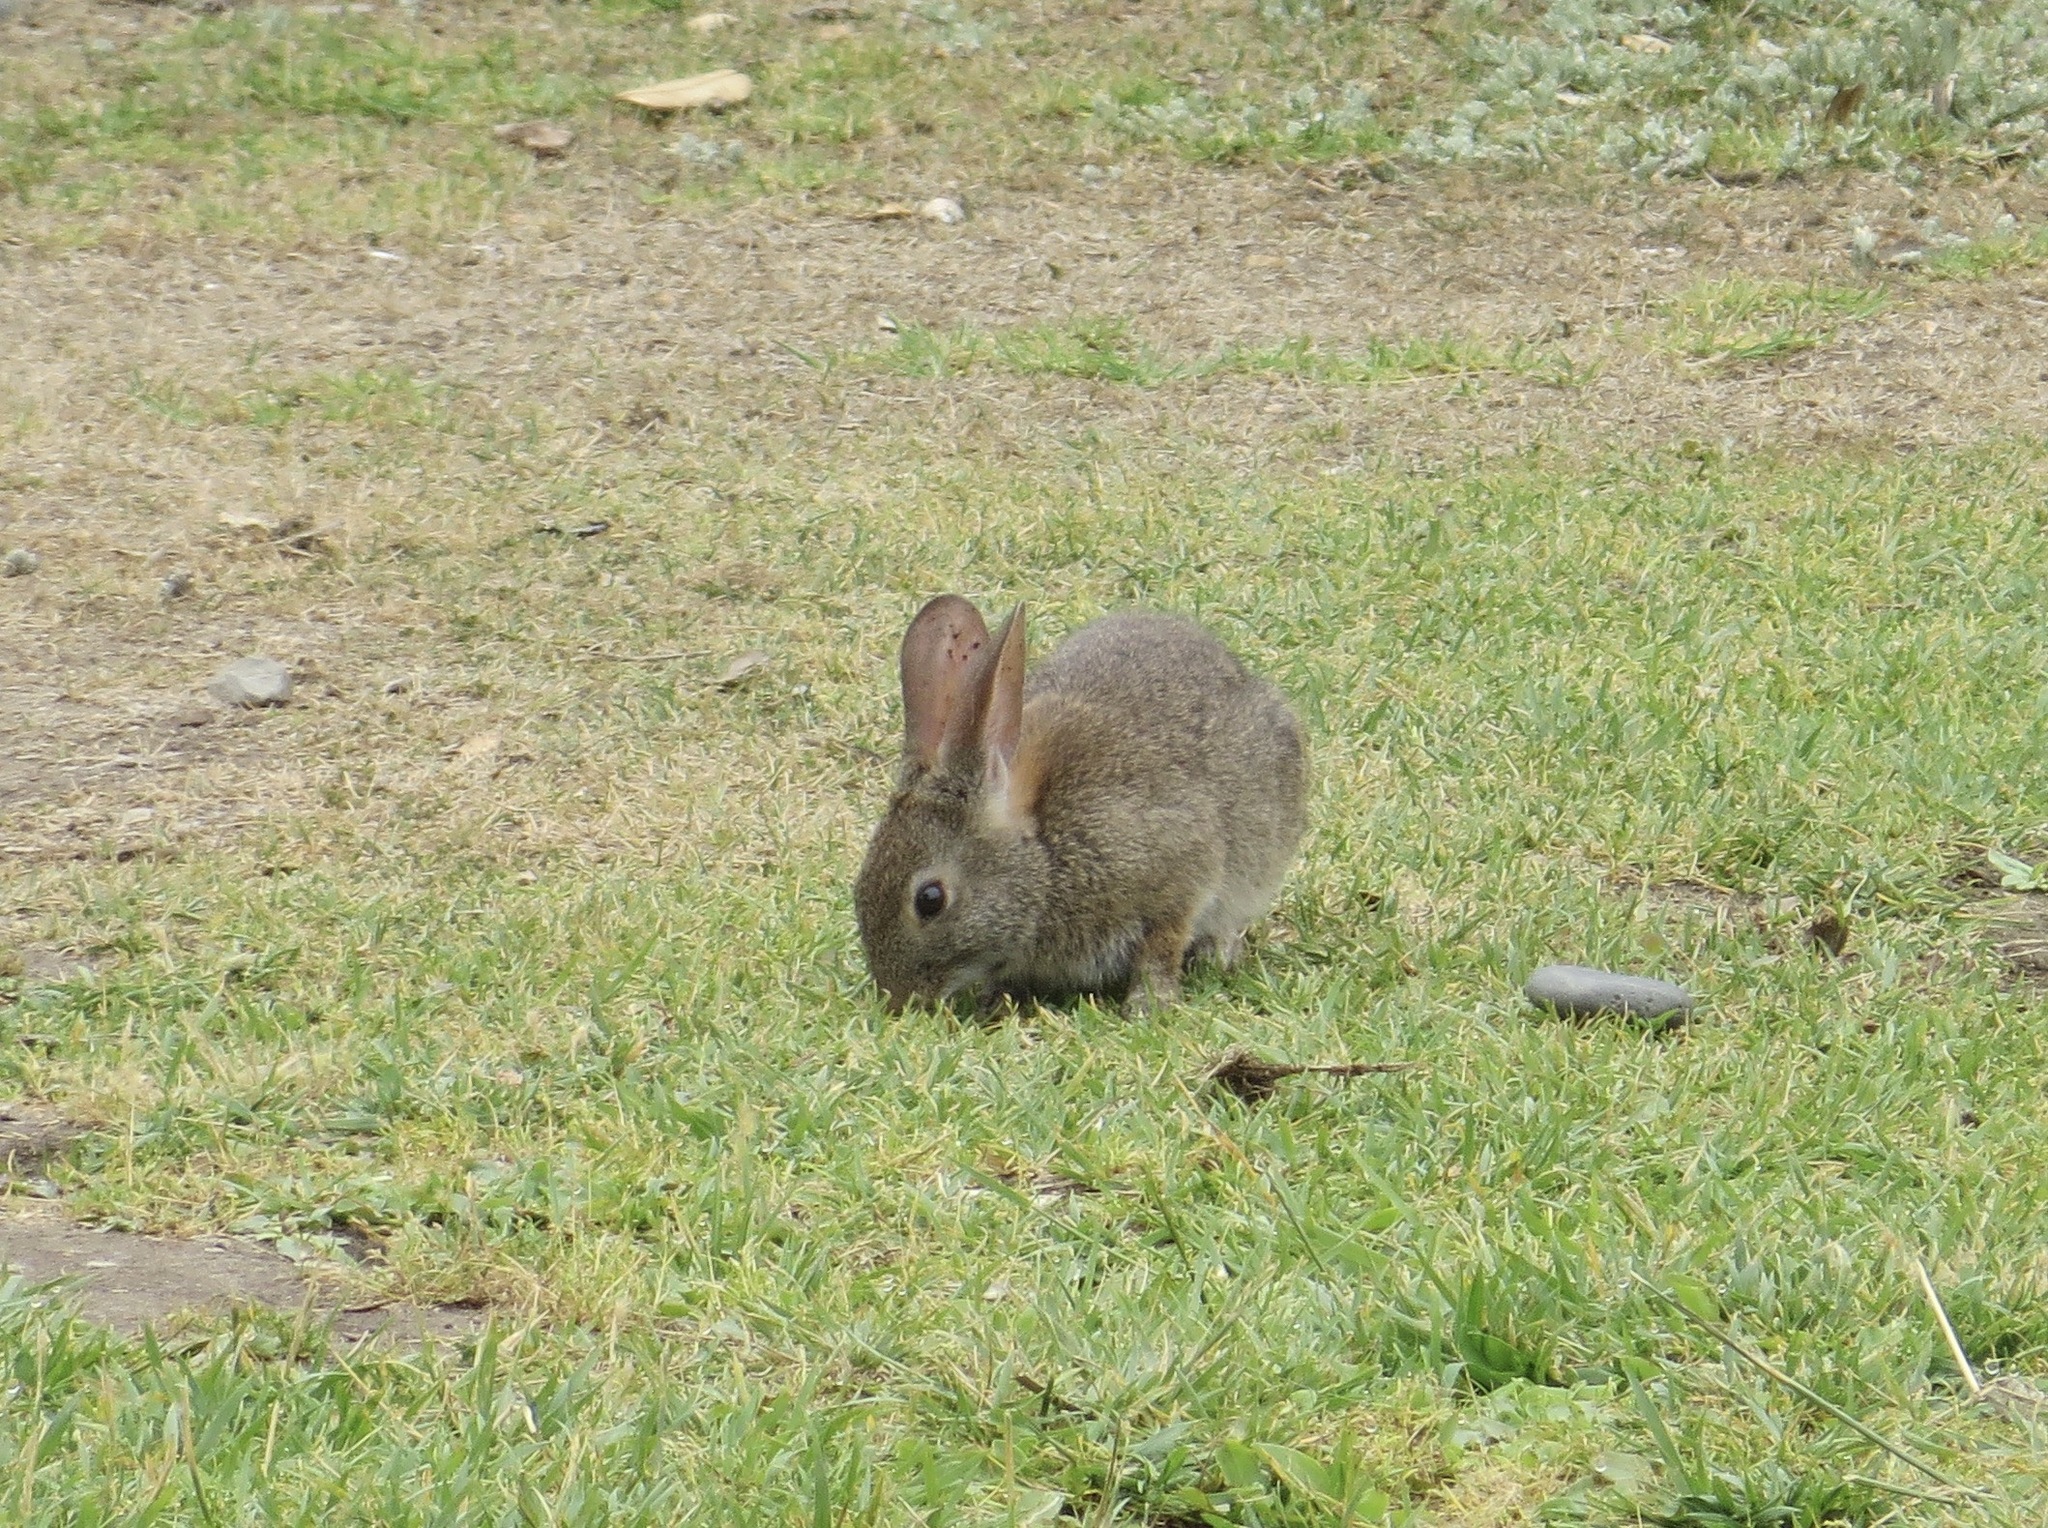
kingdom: Animalia
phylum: Chordata
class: Mammalia
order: Lagomorpha
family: Leporidae
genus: Sylvilagus
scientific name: Sylvilagus bachmani
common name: Brush rabbit
